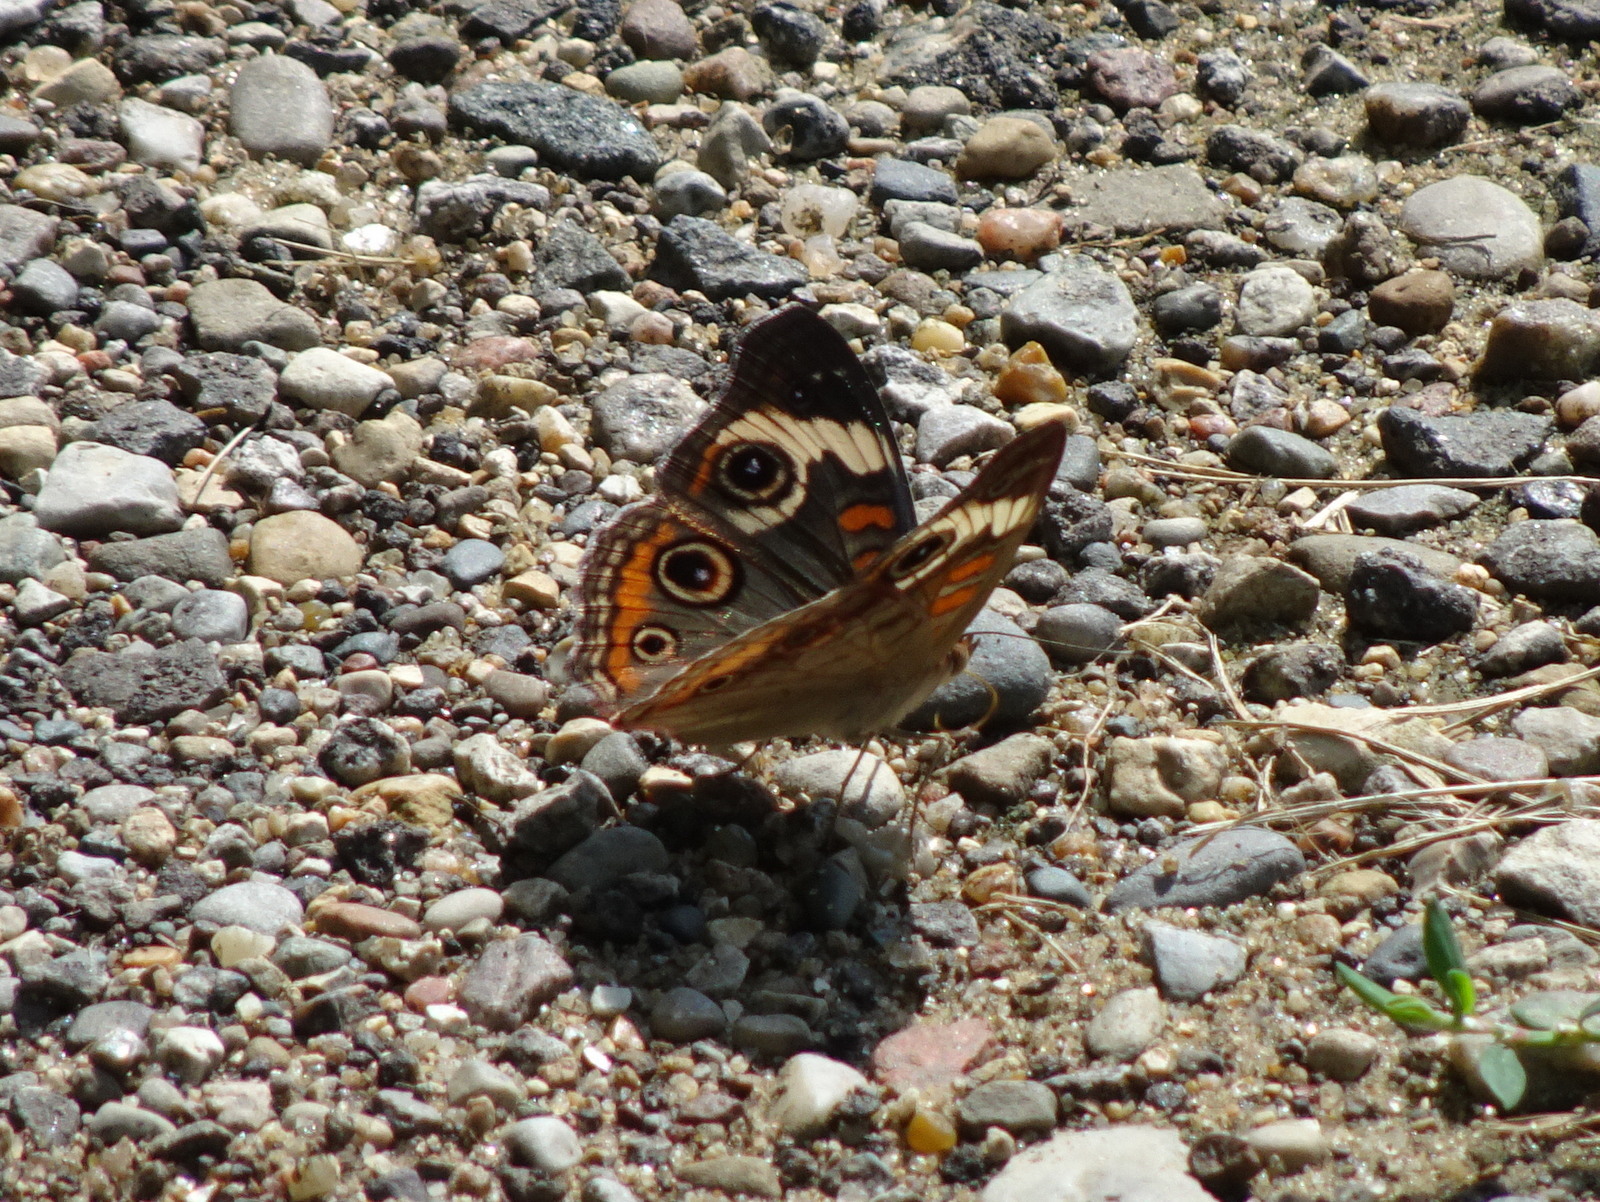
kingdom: Animalia
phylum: Arthropoda
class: Insecta
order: Lepidoptera
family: Nymphalidae
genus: Junonia
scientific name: Junonia coenia
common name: Common buckeye
